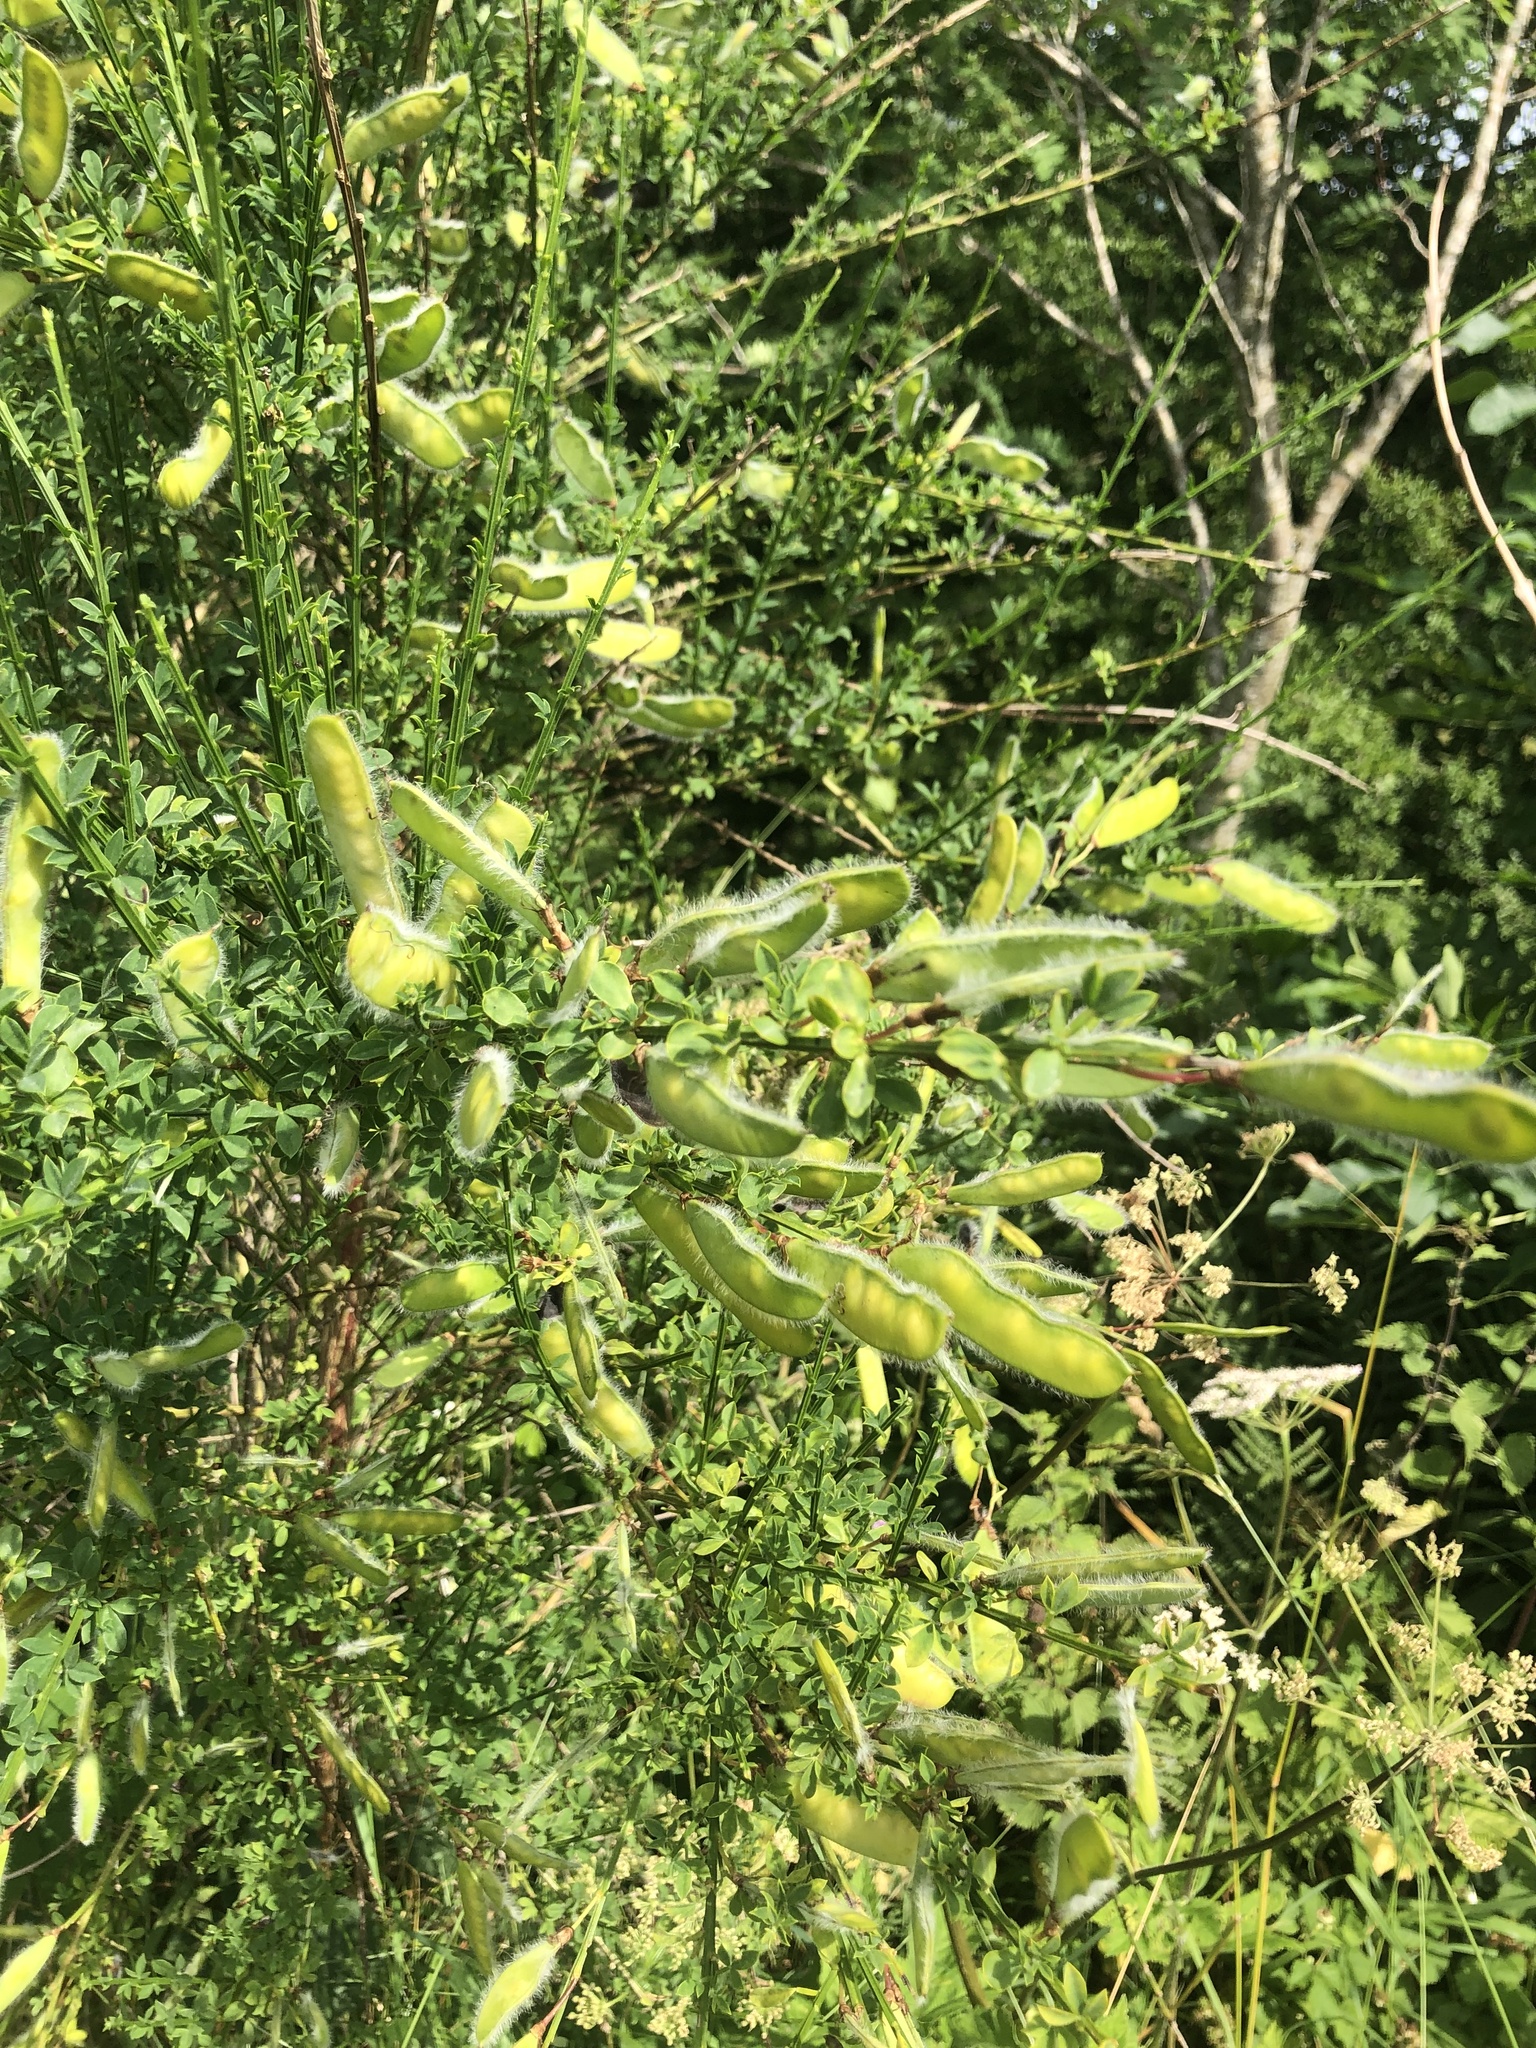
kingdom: Plantae
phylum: Tracheophyta
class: Magnoliopsida
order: Fabales
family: Fabaceae
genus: Cytisus
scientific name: Cytisus scoparius
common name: Scotch broom
